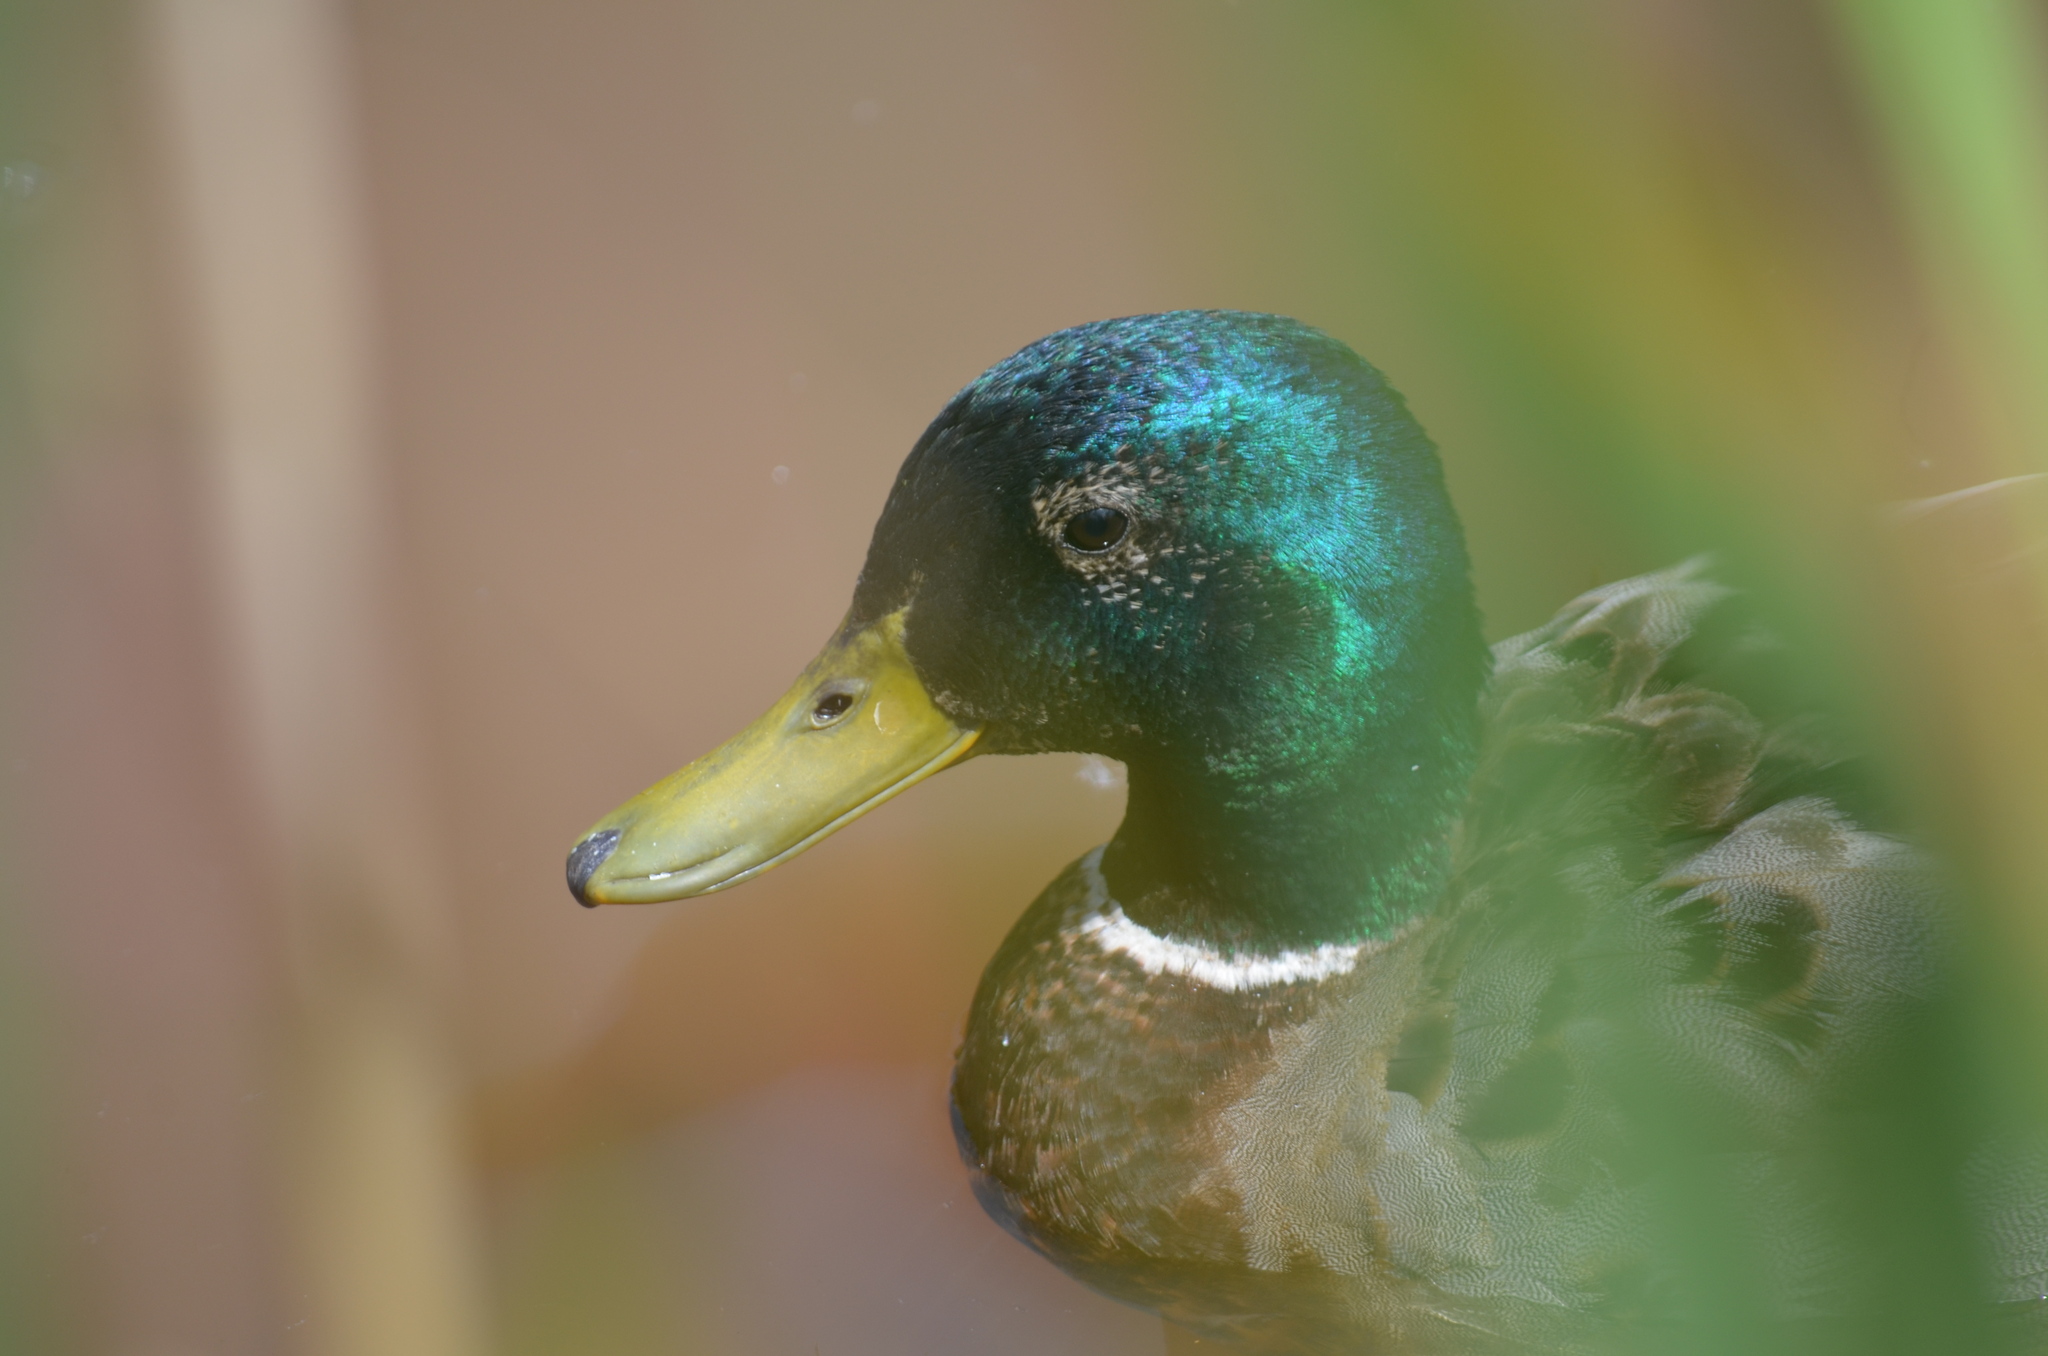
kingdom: Animalia
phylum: Chordata
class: Aves
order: Anseriformes
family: Anatidae
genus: Anas
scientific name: Anas platyrhynchos
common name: Mallard
